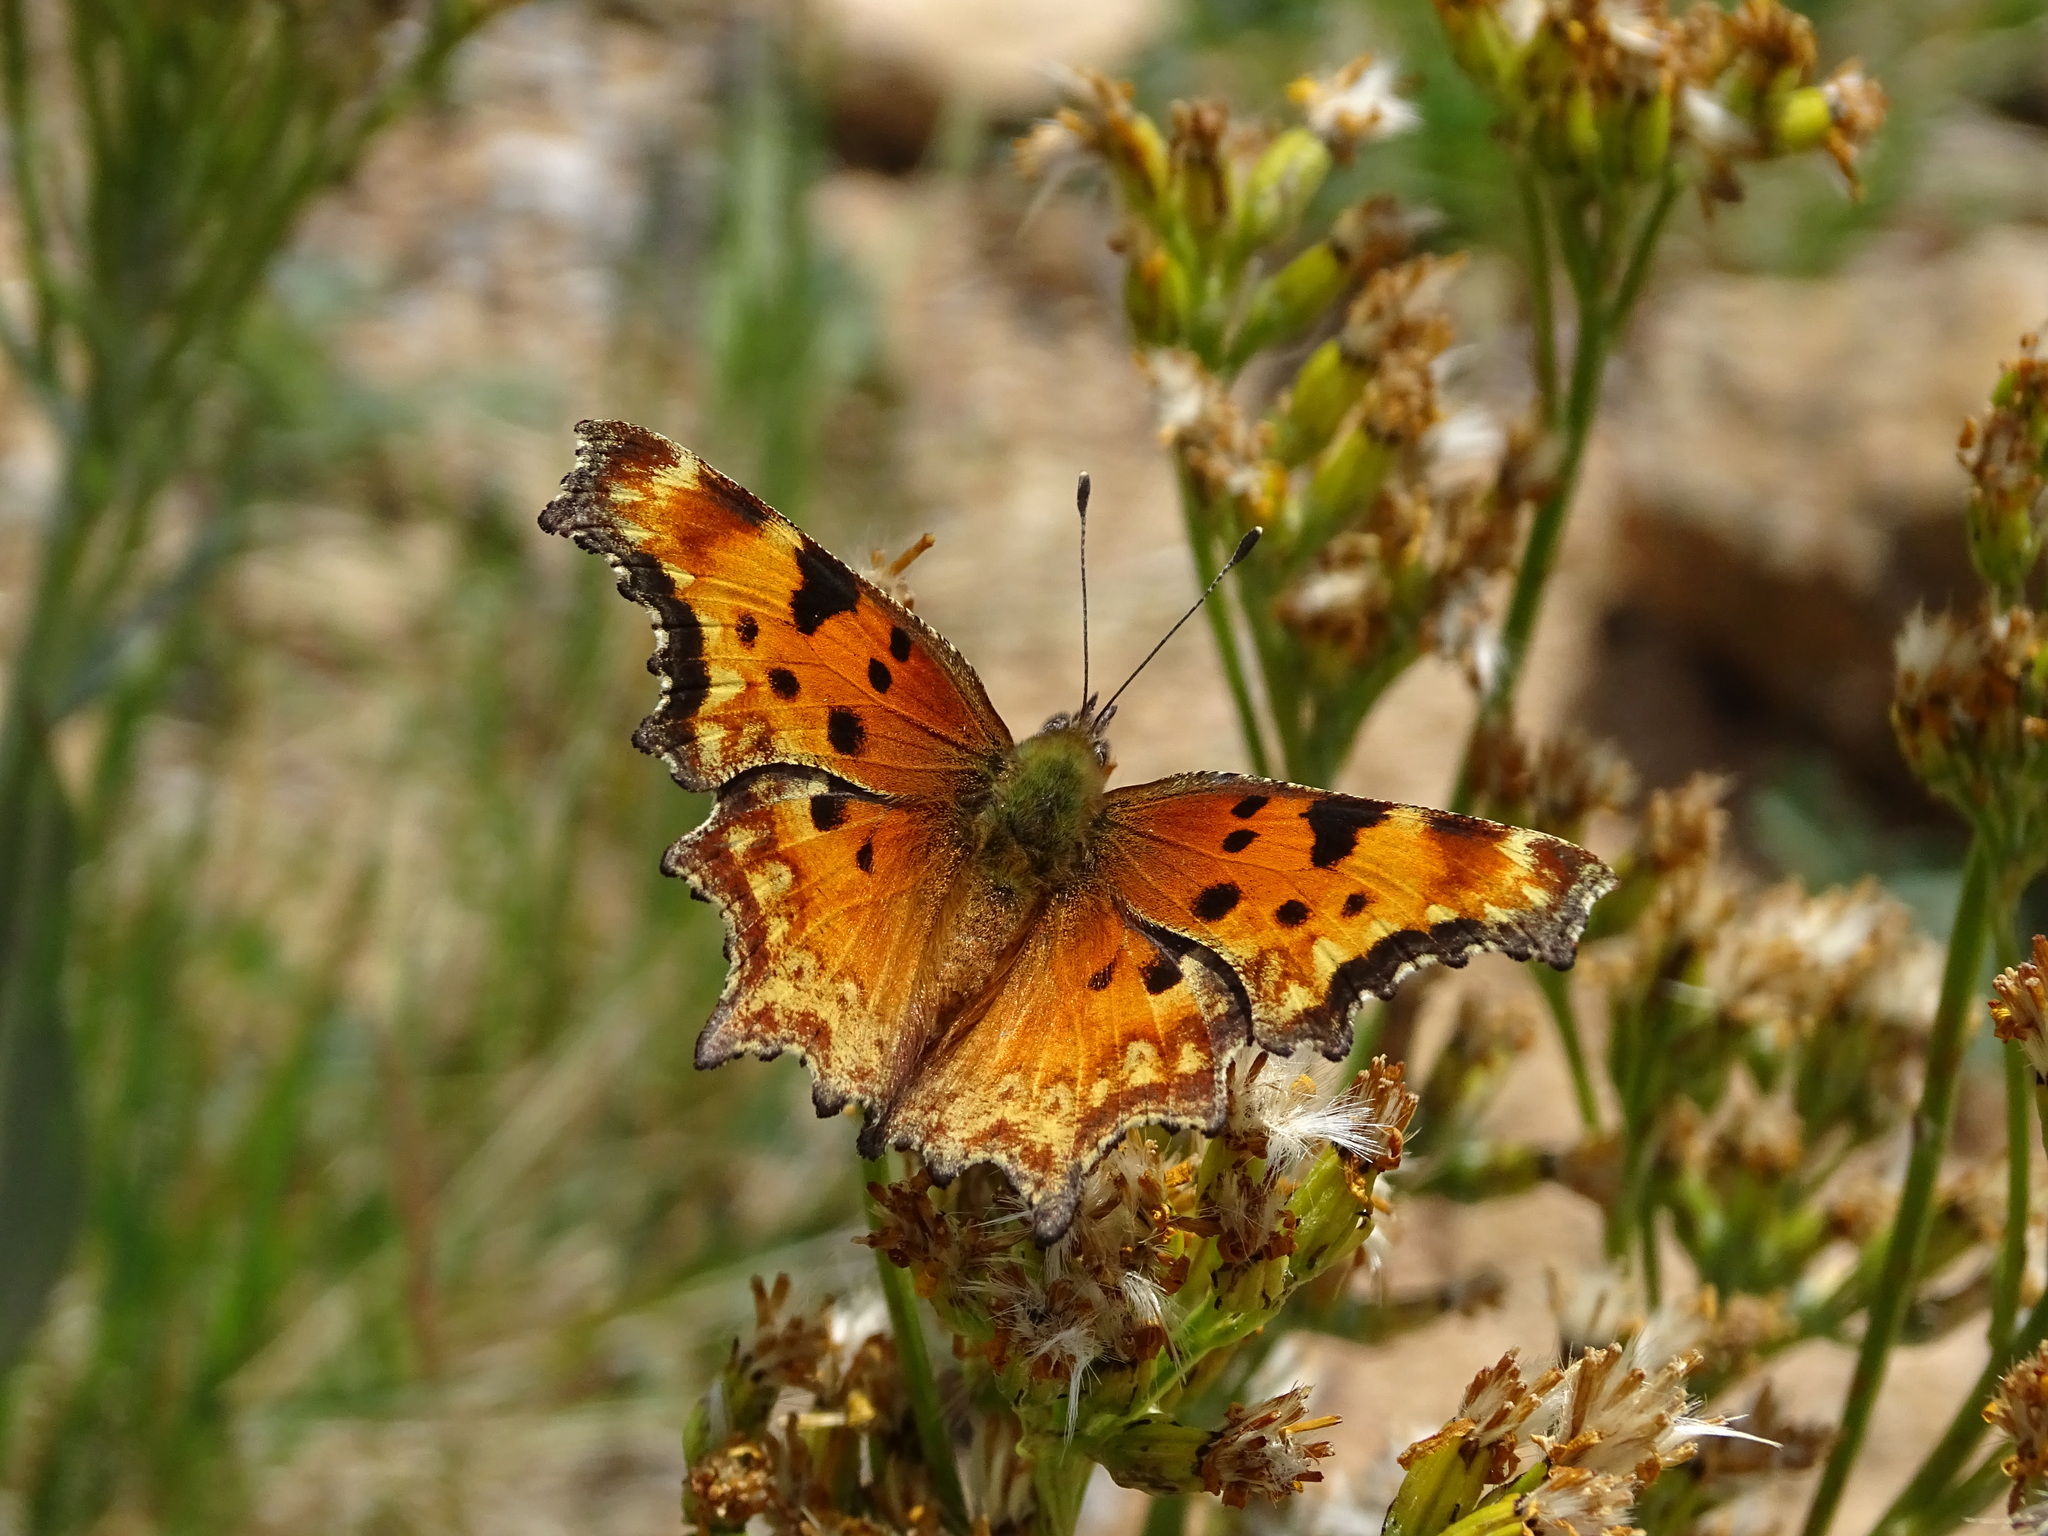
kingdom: Animalia
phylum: Arthropoda
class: Insecta
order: Lepidoptera
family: Nymphalidae
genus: Polygonia
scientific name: Polygonia gracilis
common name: Hoary comma
